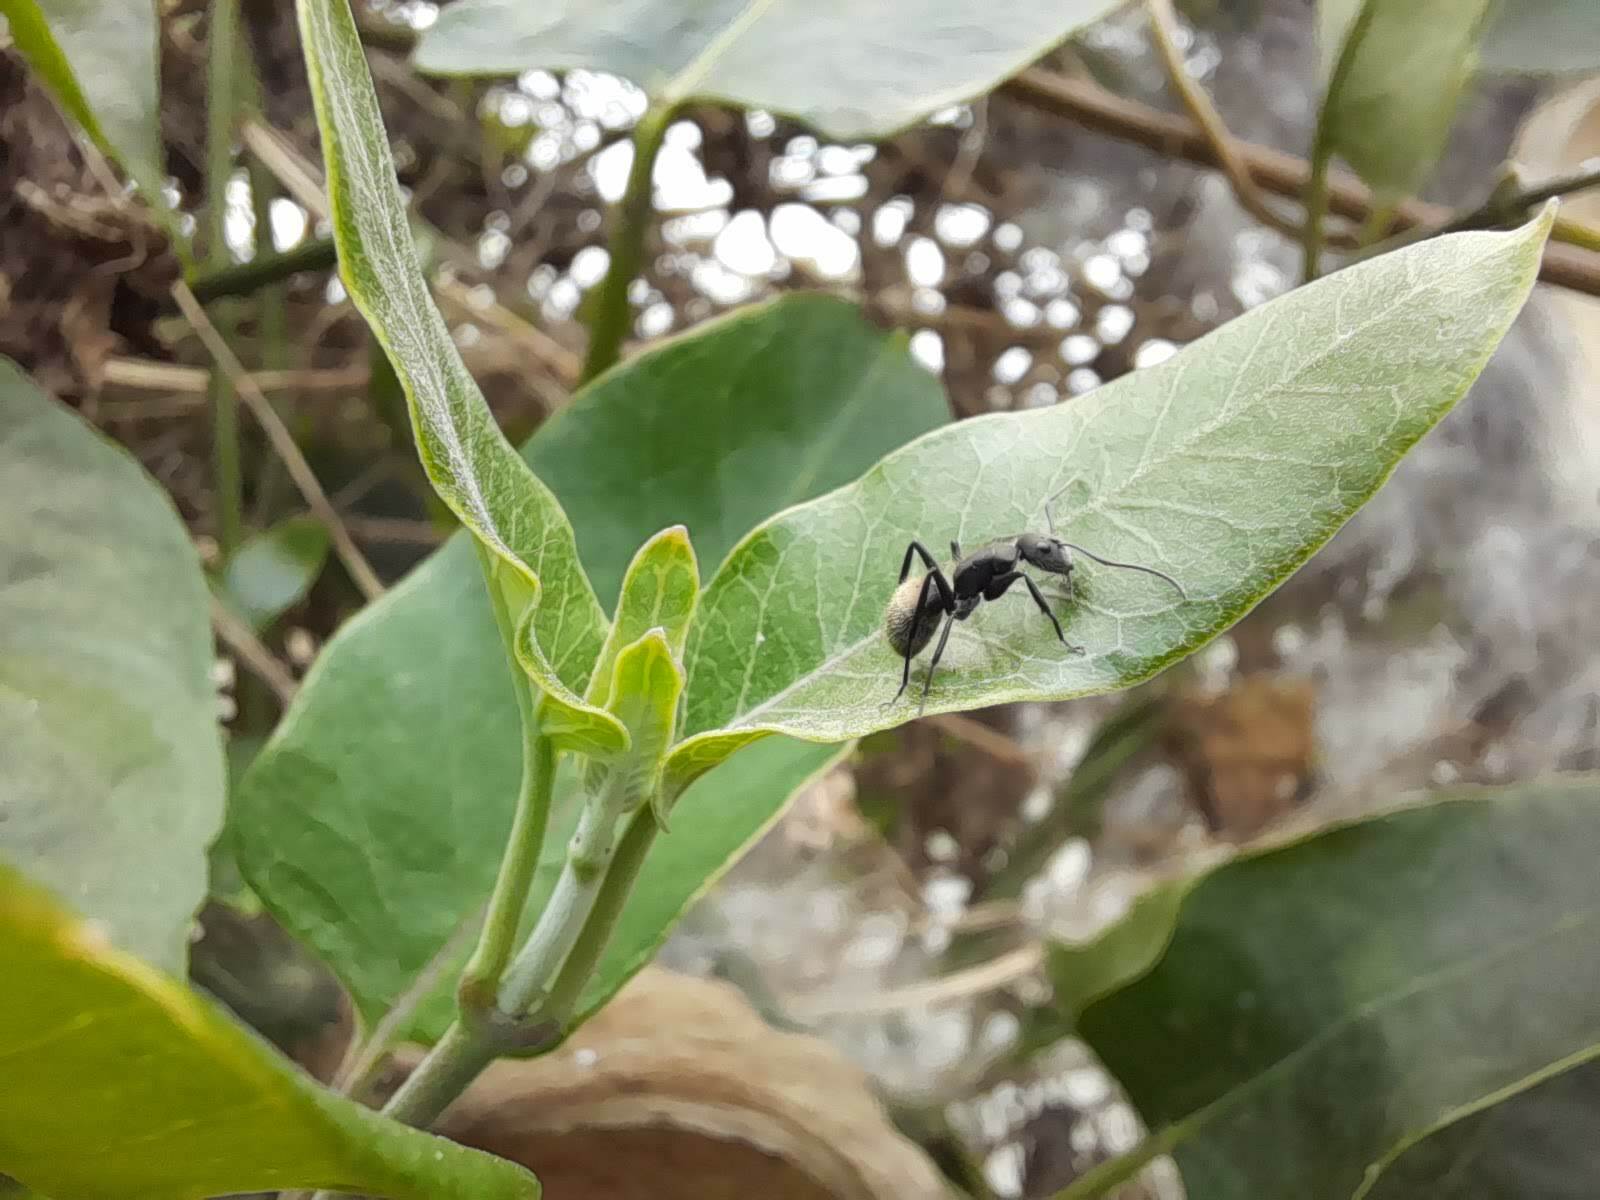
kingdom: Animalia
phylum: Arthropoda
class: Insecta
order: Hymenoptera
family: Formicidae
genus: Camponotus
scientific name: Camponotus mus
